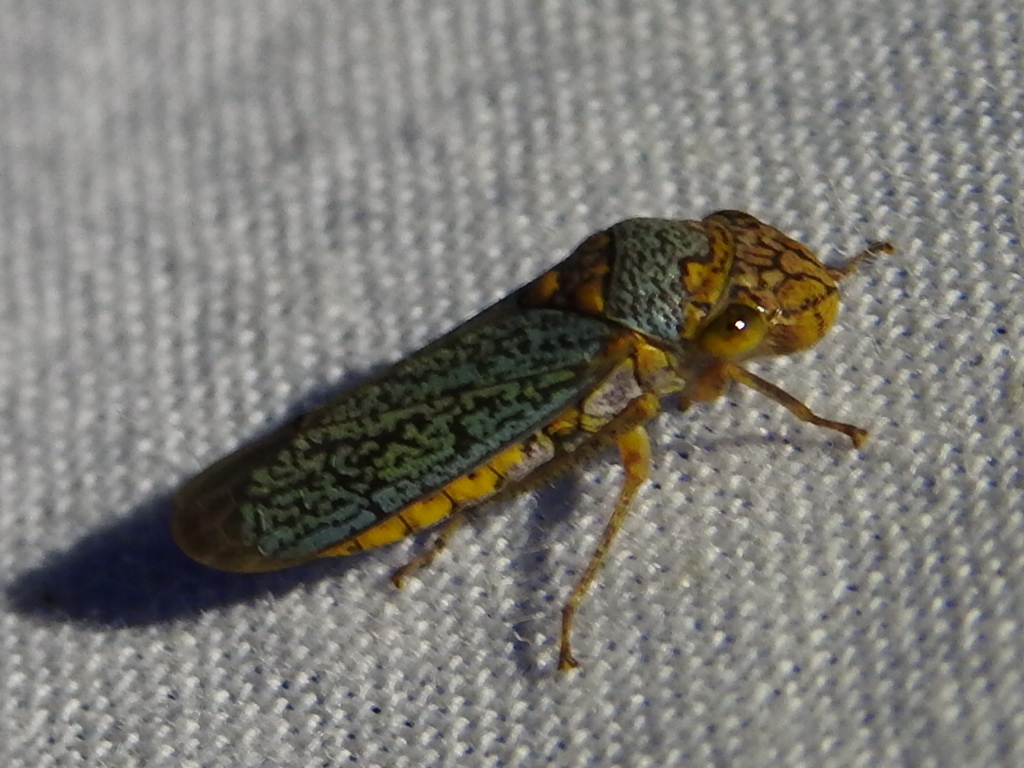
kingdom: Animalia
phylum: Arthropoda
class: Insecta
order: Hemiptera
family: Cicadellidae
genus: Oncometopia
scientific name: Oncometopia orbona
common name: Broad-headed sharpshooter
